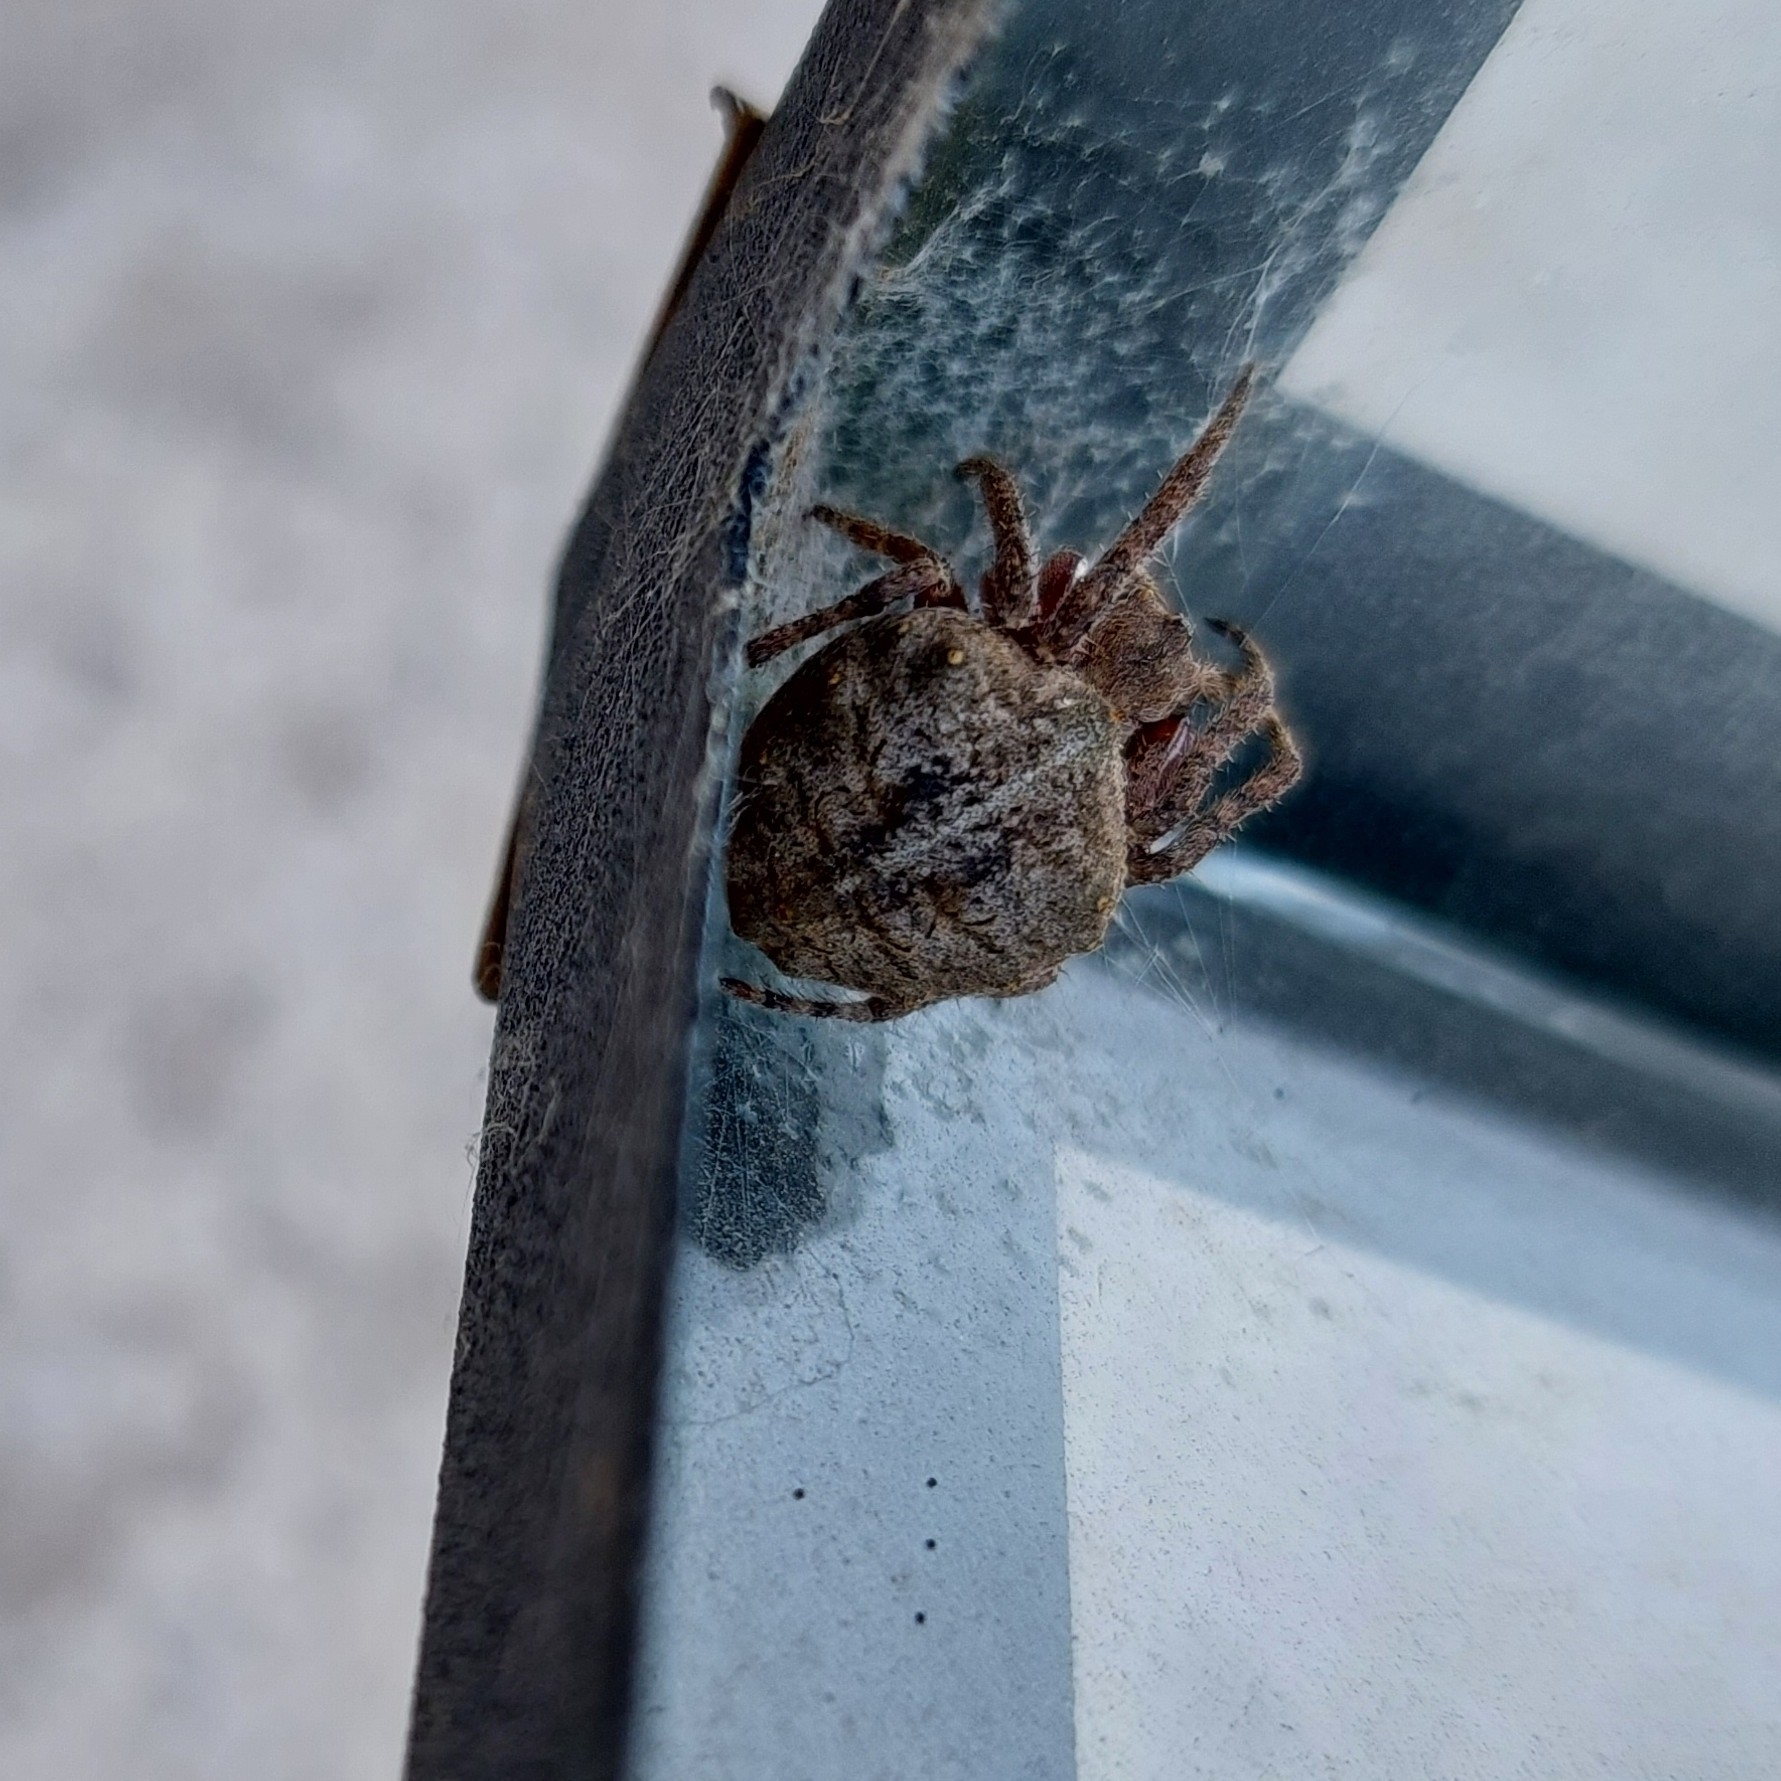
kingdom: Animalia
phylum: Arthropoda
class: Arachnida
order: Araneae
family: Araneidae
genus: Parawixia
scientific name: Parawixia audax
